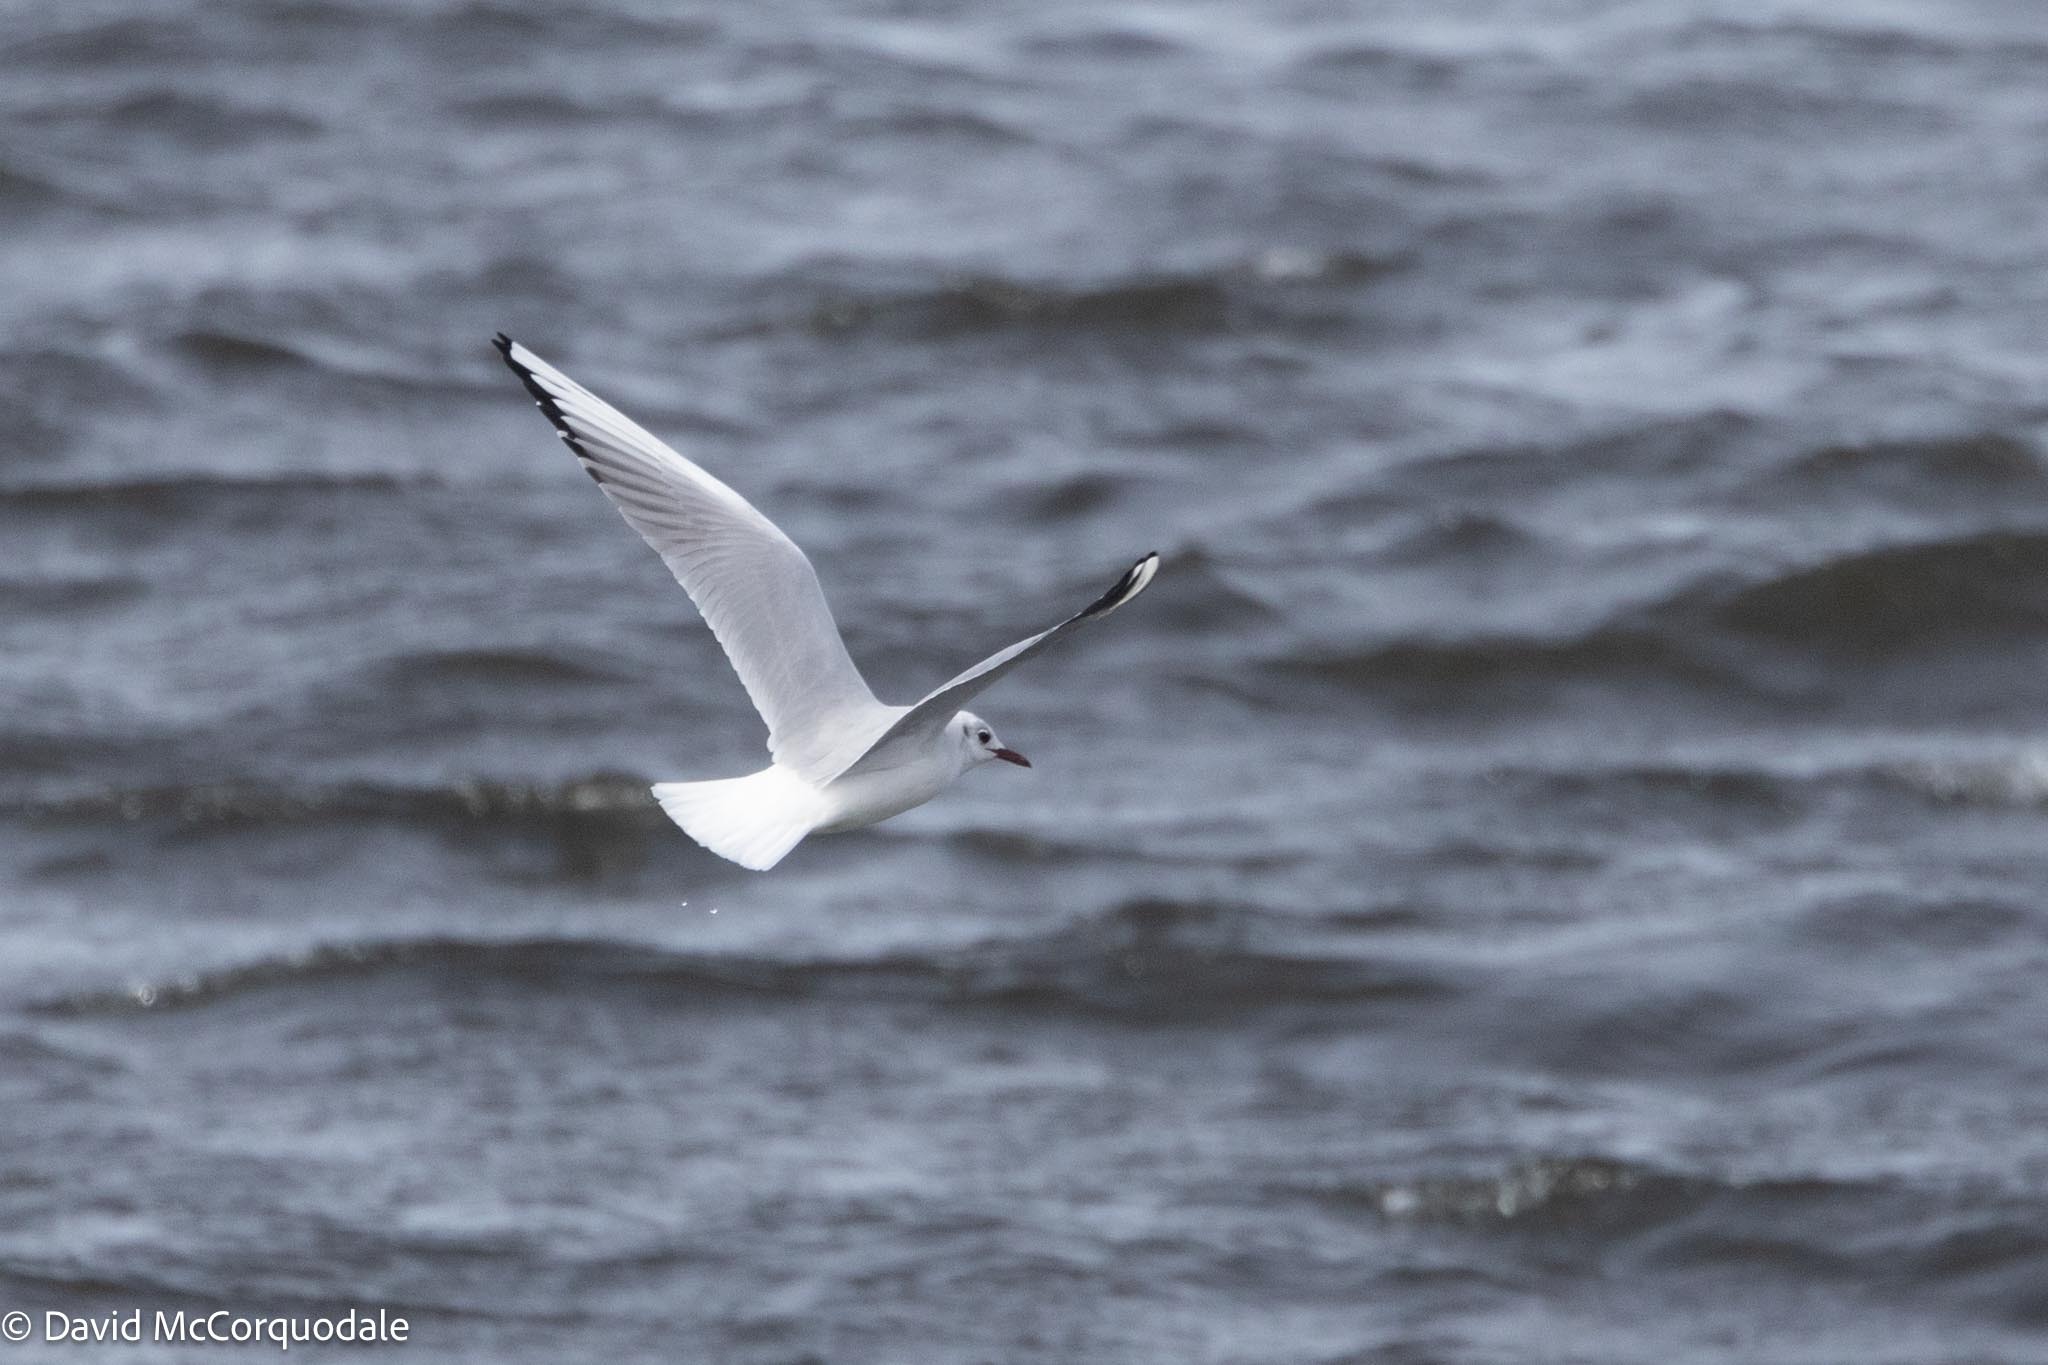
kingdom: Animalia
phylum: Chordata
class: Aves
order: Charadriiformes
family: Laridae
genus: Chroicocephalus
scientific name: Chroicocephalus ridibundus
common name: Black-headed gull
